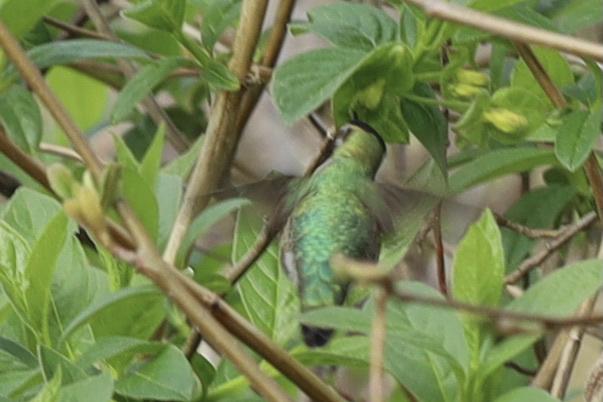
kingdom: Animalia
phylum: Chordata
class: Aves
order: Apodiformes
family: Trochilidae
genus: Calypte
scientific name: Calypte anna
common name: Anna's hummingbird
